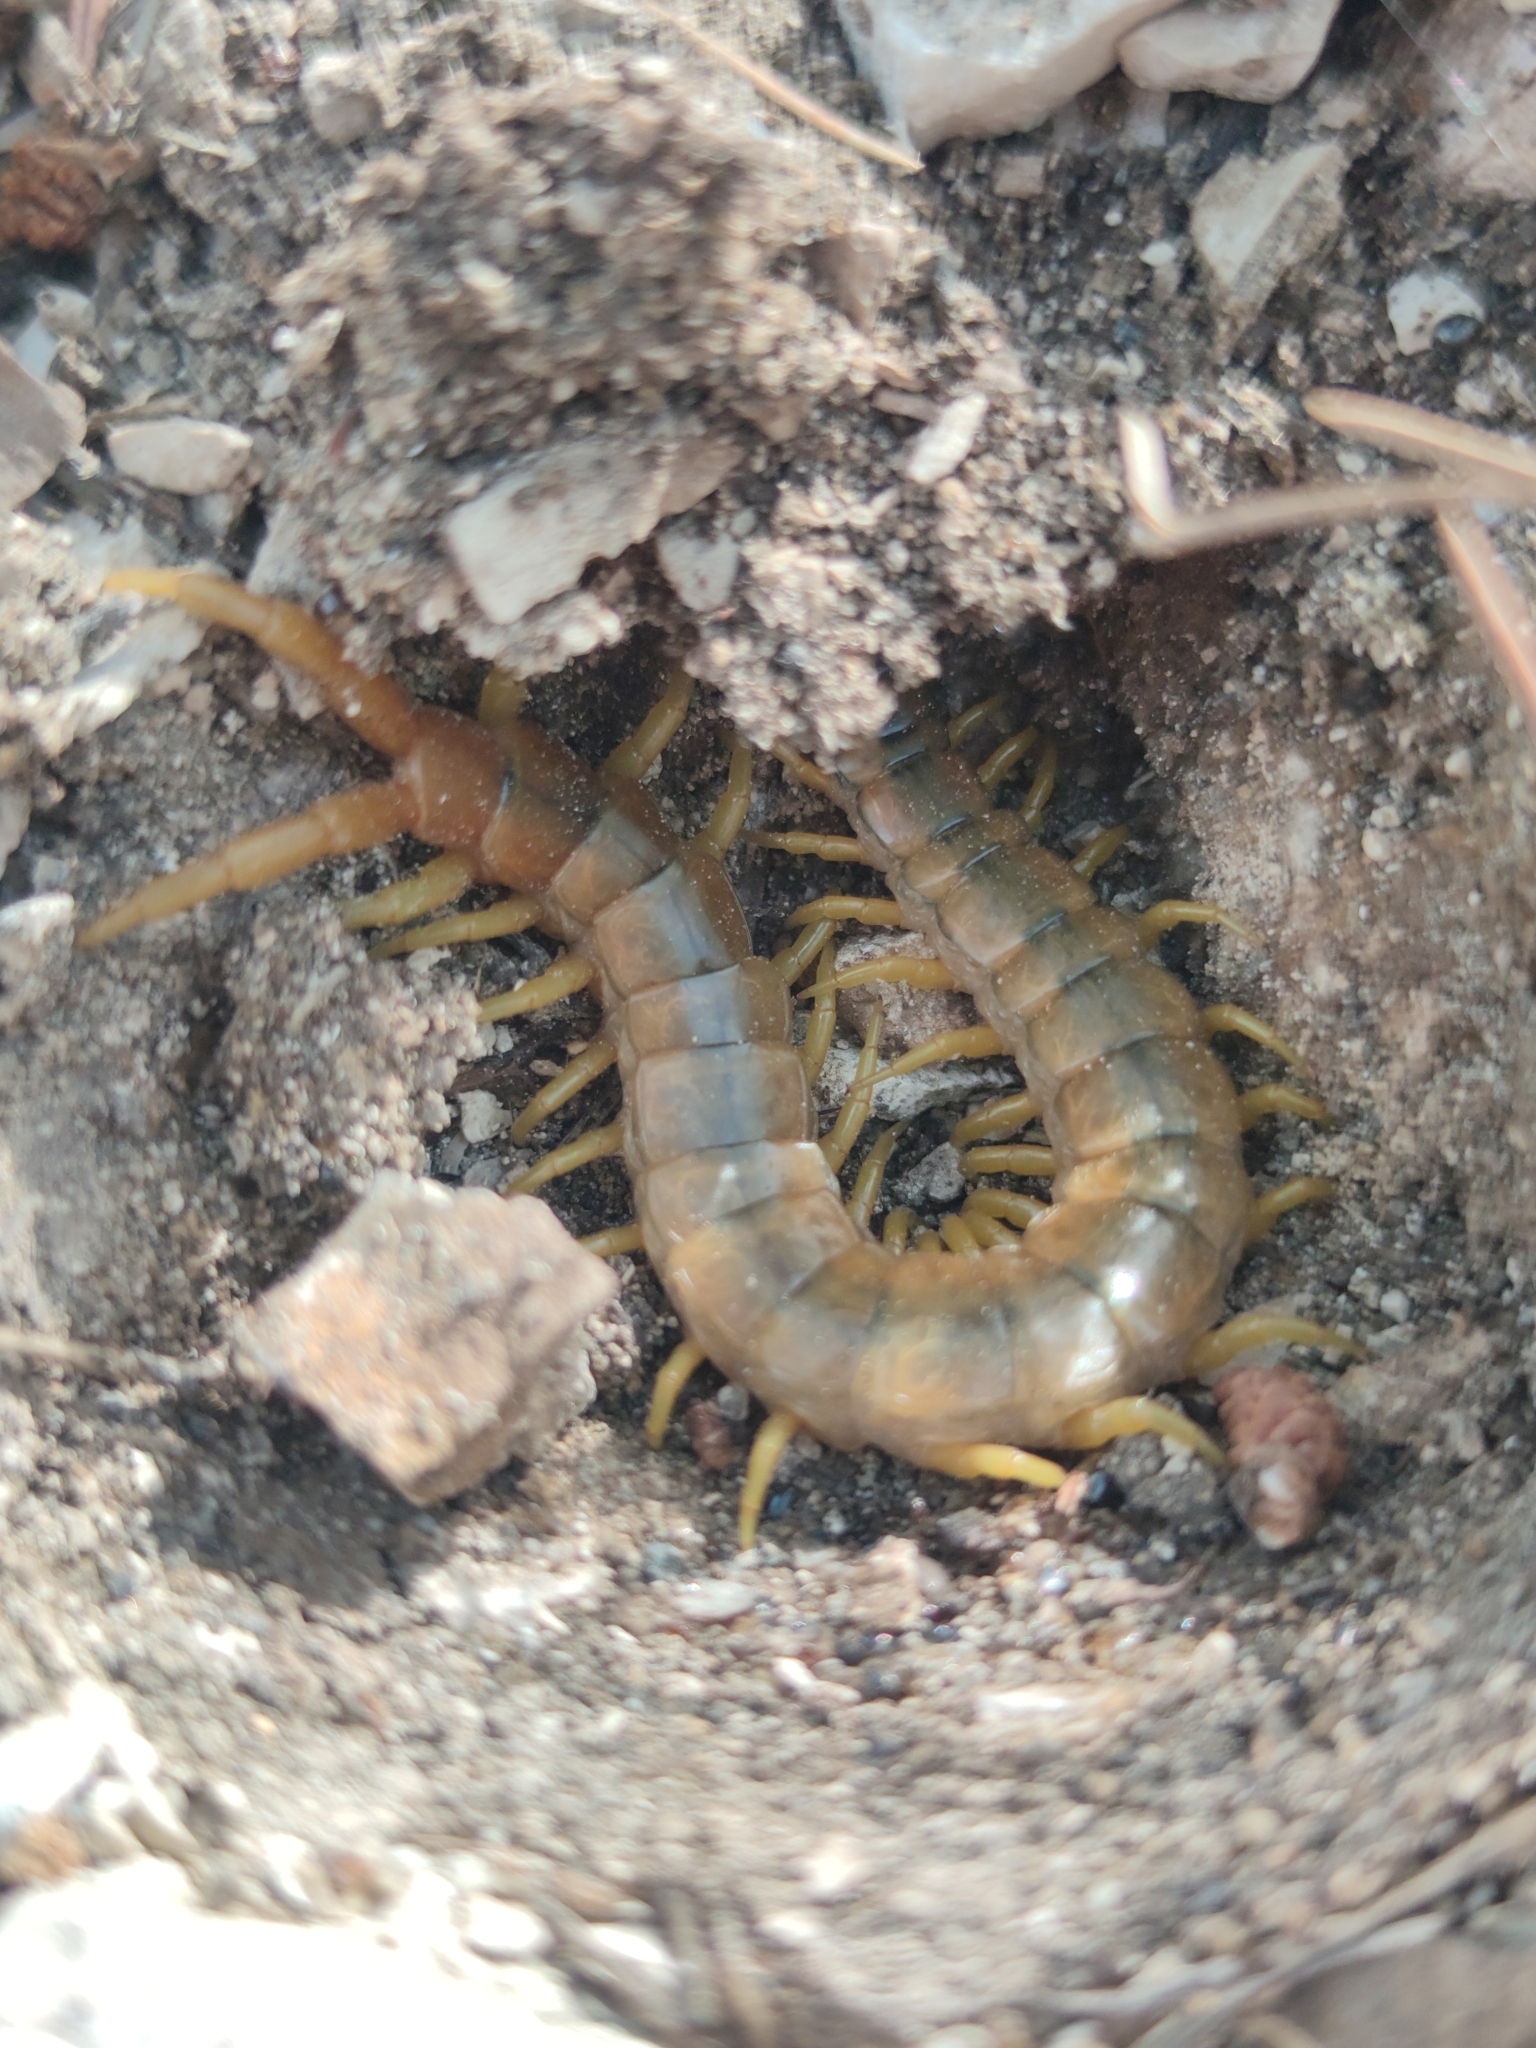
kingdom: Animalia
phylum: Arthropoda
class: Chilopoda
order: Scolopendromorpha
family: Scolopendridae
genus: Scolopendra
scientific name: Scolopendra cingulata
